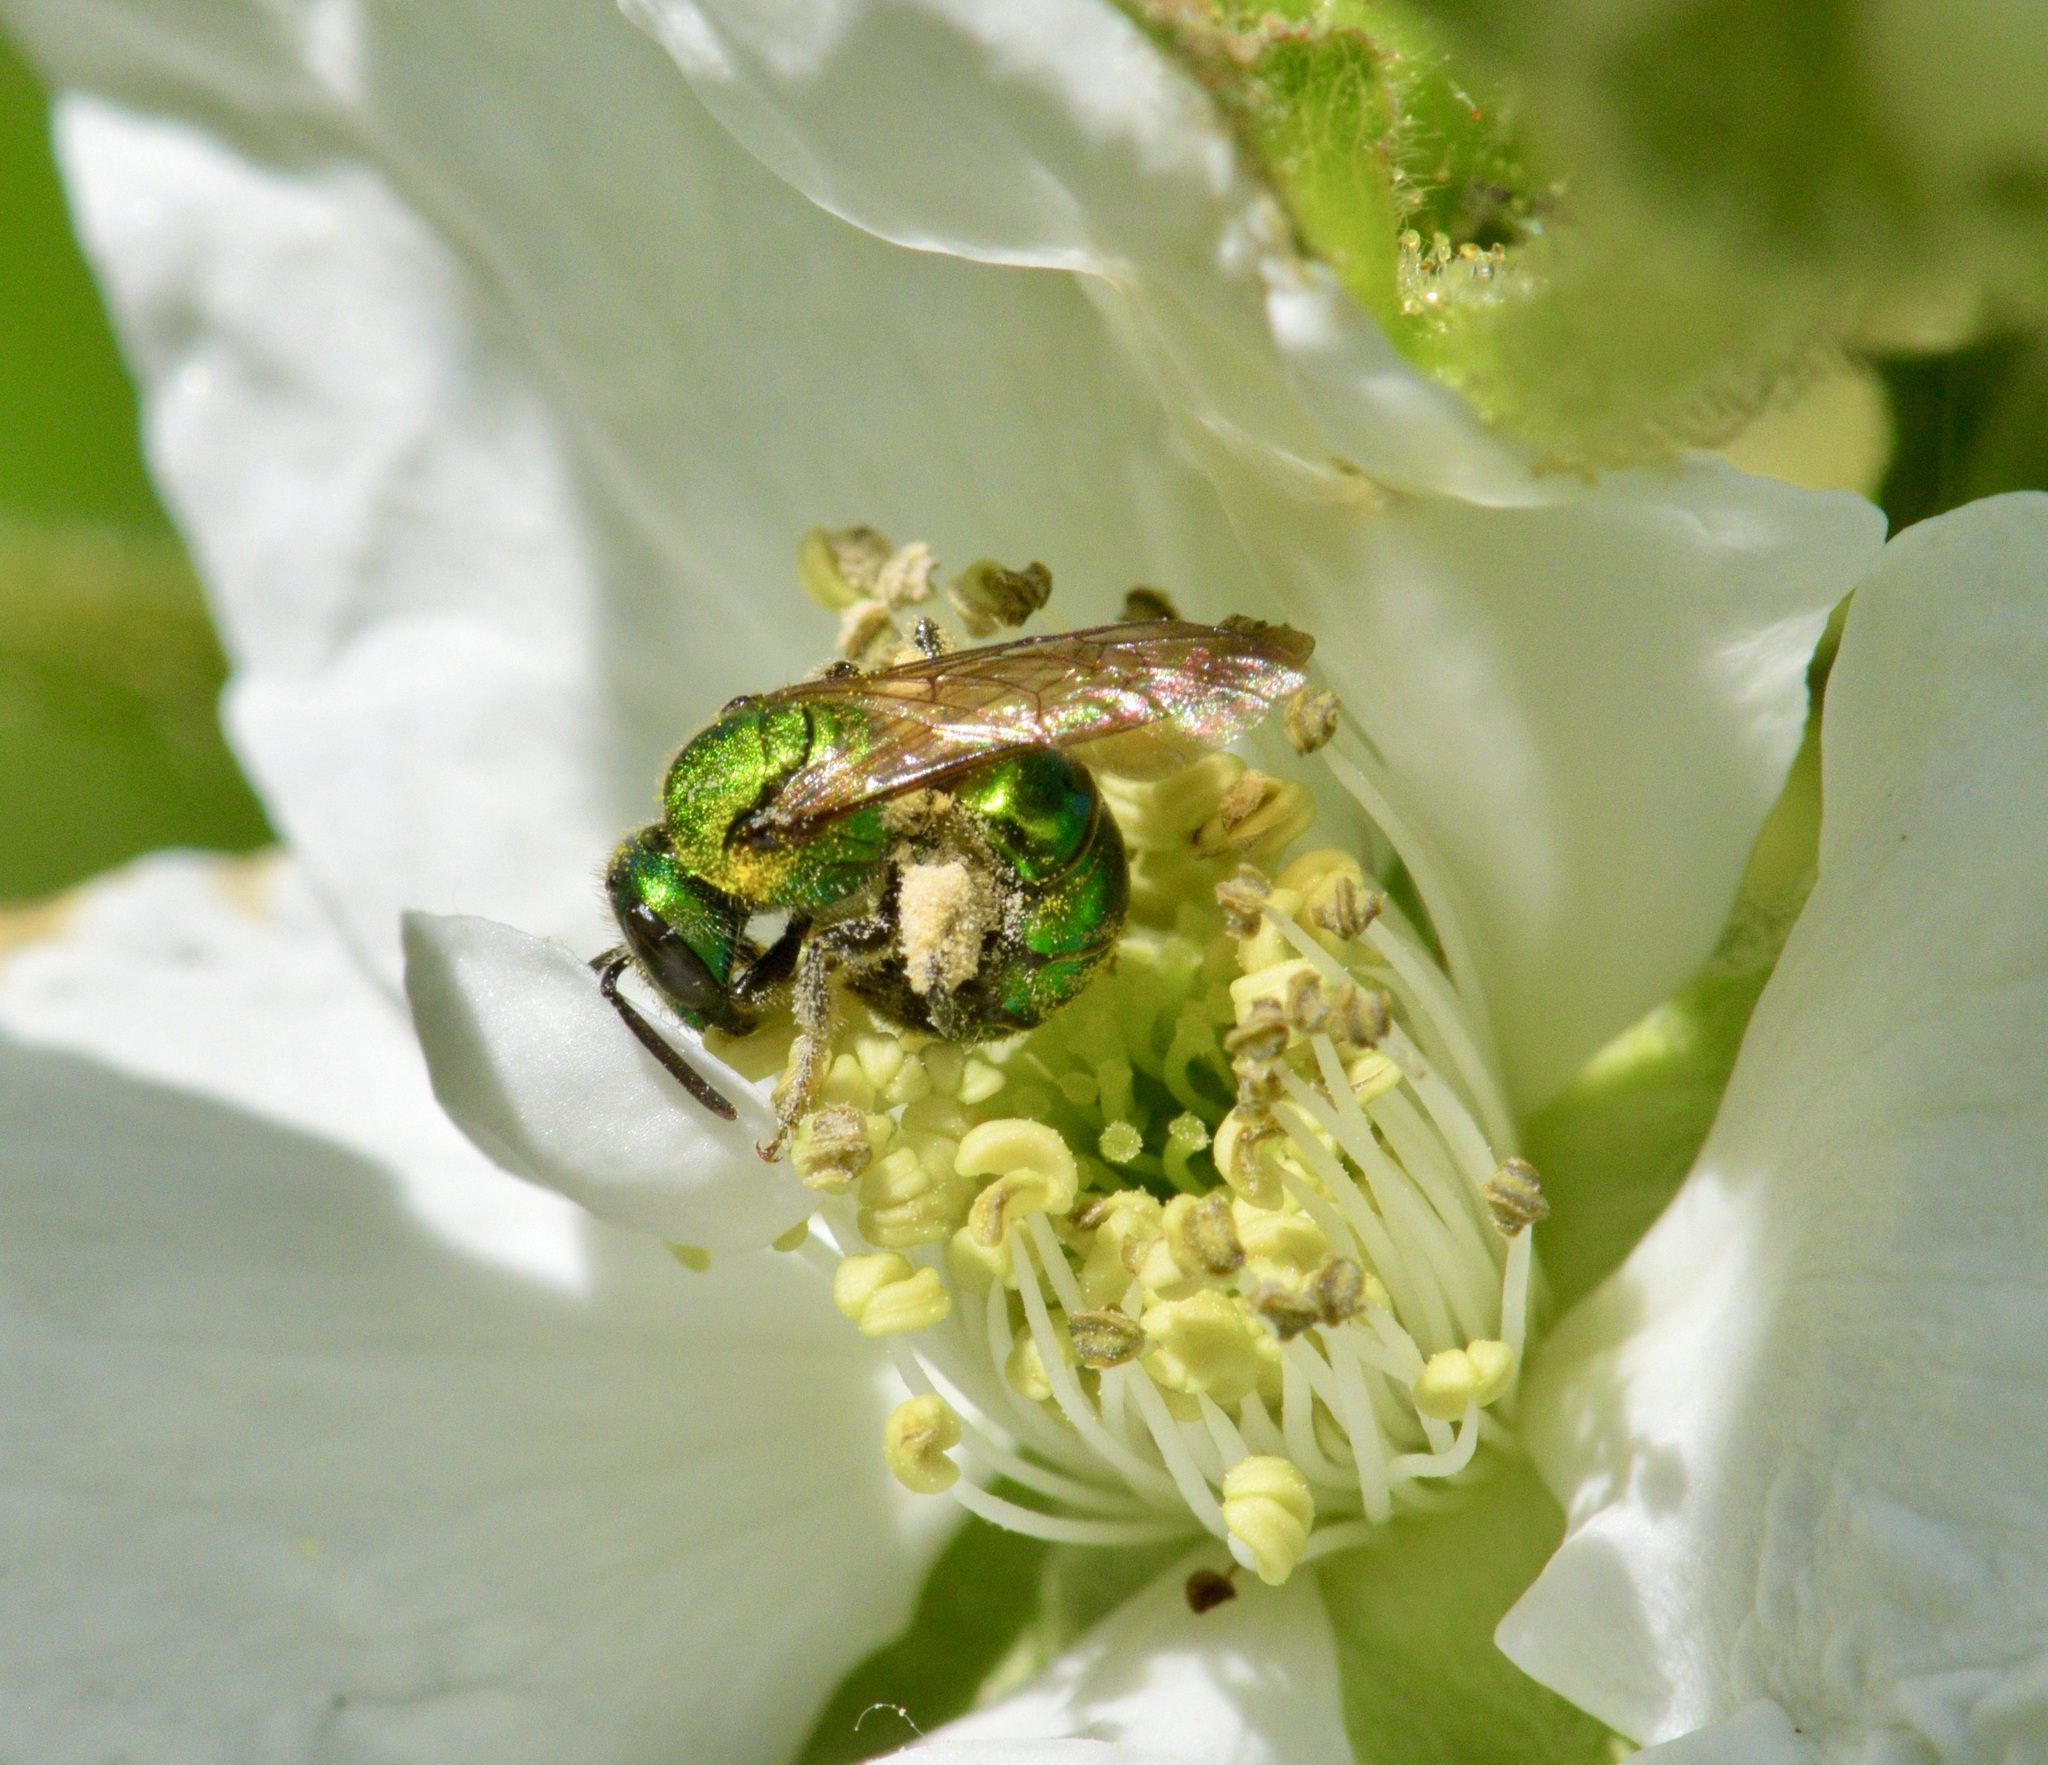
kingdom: Animalia
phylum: Arthropoda
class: Insecta
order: Hymenoptera
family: Halictidae
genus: Augochlora
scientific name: Augochlora pura
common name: Pure green sweat bee
